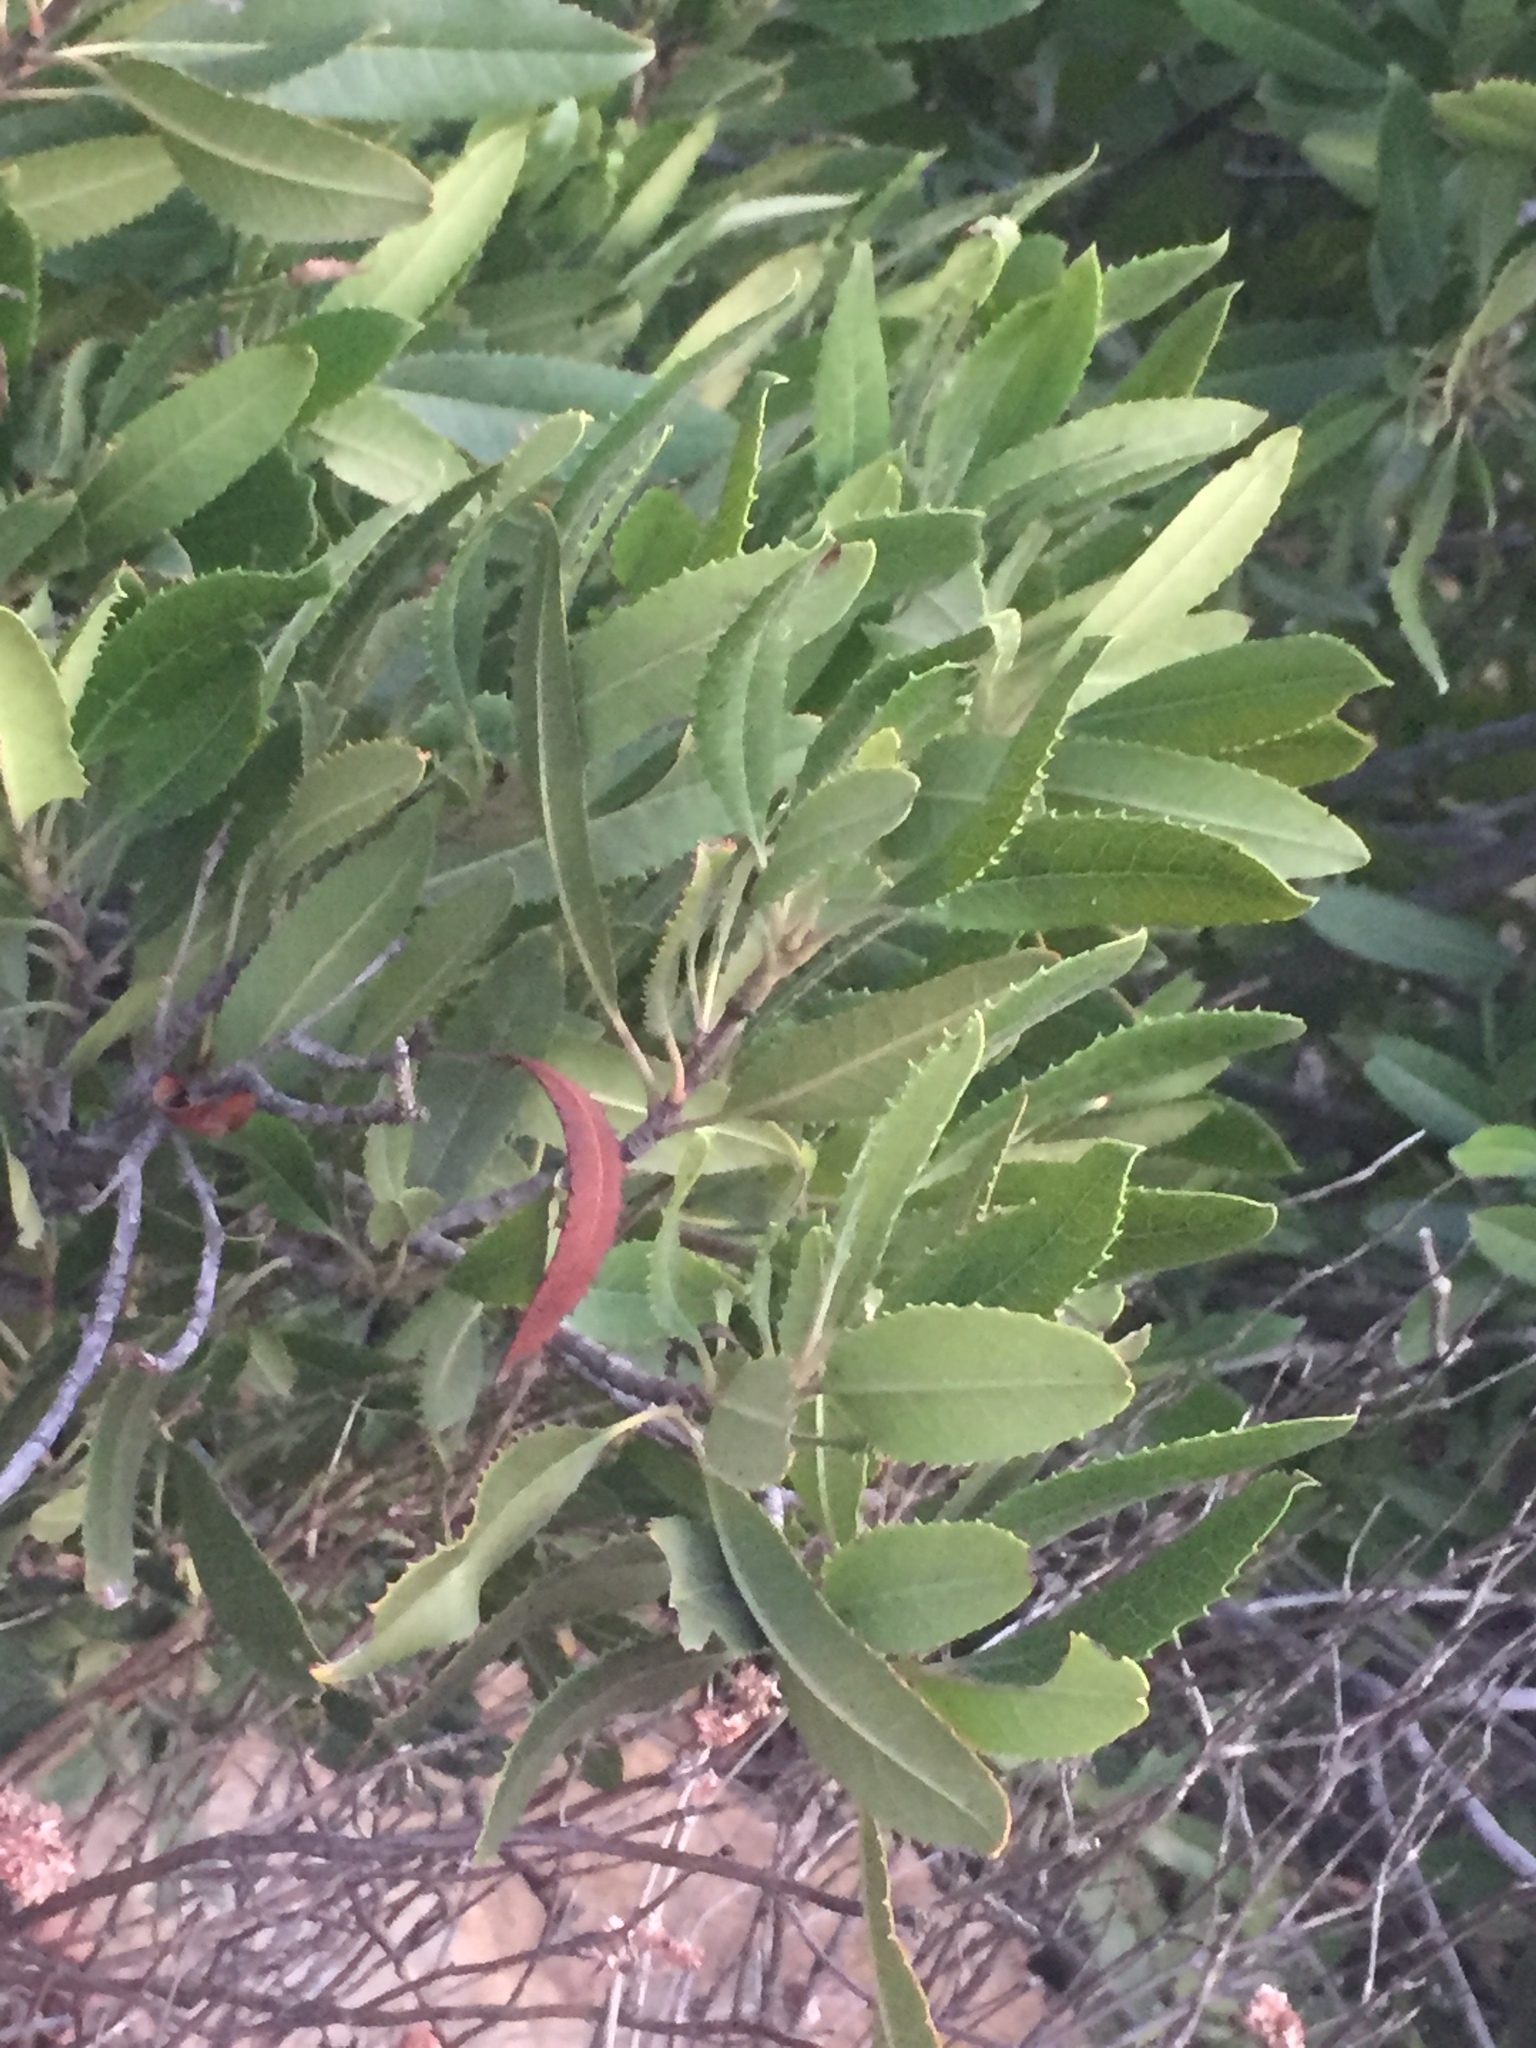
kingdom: Plantae
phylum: Tracheophyta
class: Magnoliopsida
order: Rosales
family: Rosaceae
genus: Heteromeles
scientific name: Heteromeles arbutifolia
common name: California-holly
